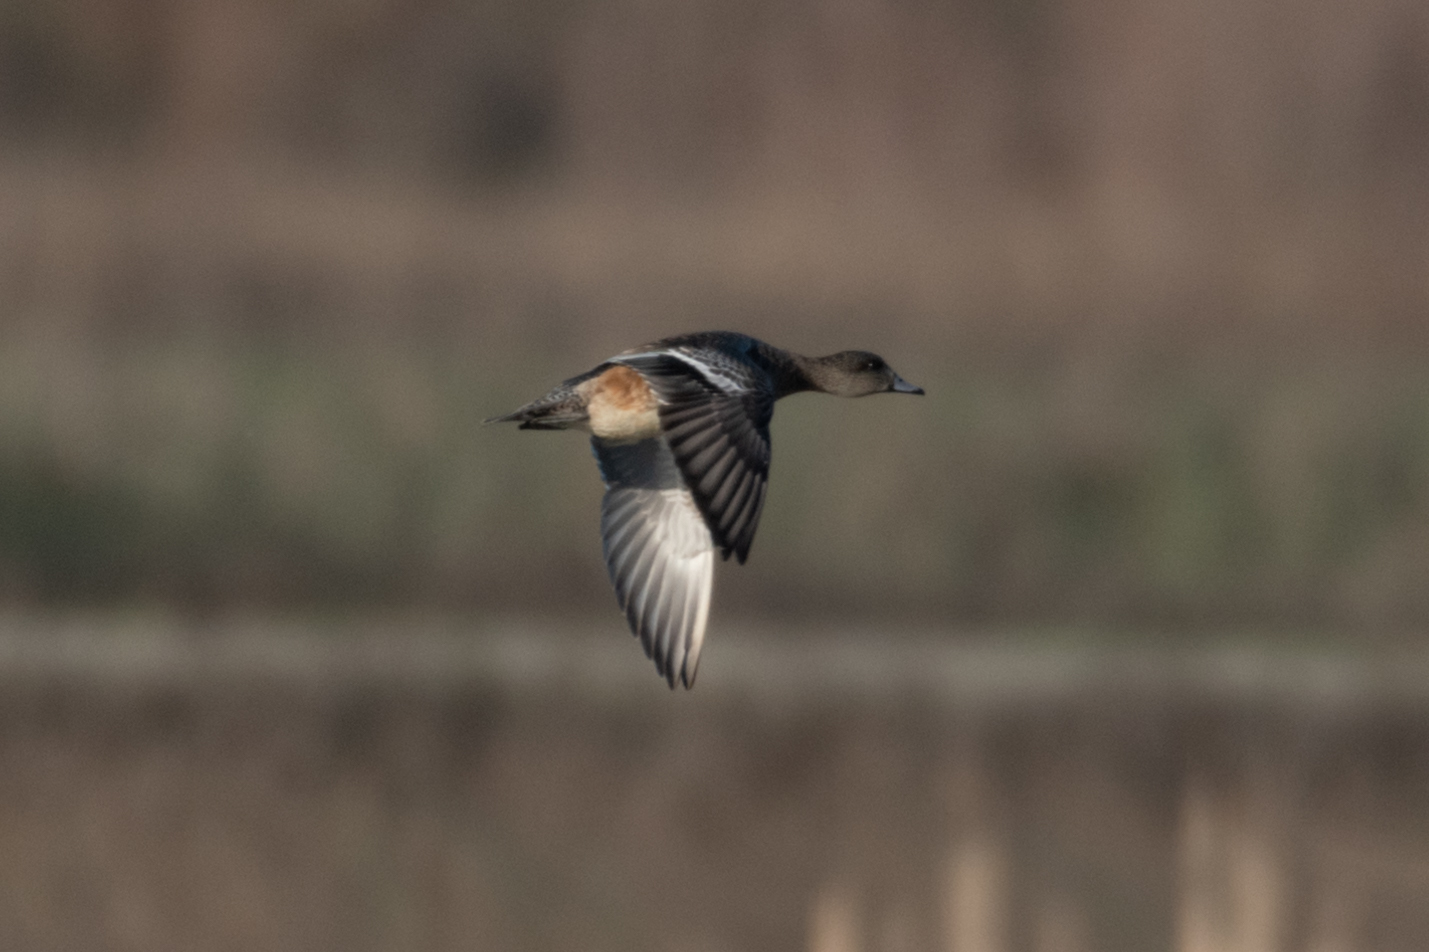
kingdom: Animalia
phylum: Chordata
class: Aves
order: Anseriformes
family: Anatidae
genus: Mareca
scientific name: Mareca americana
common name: American wigeon
